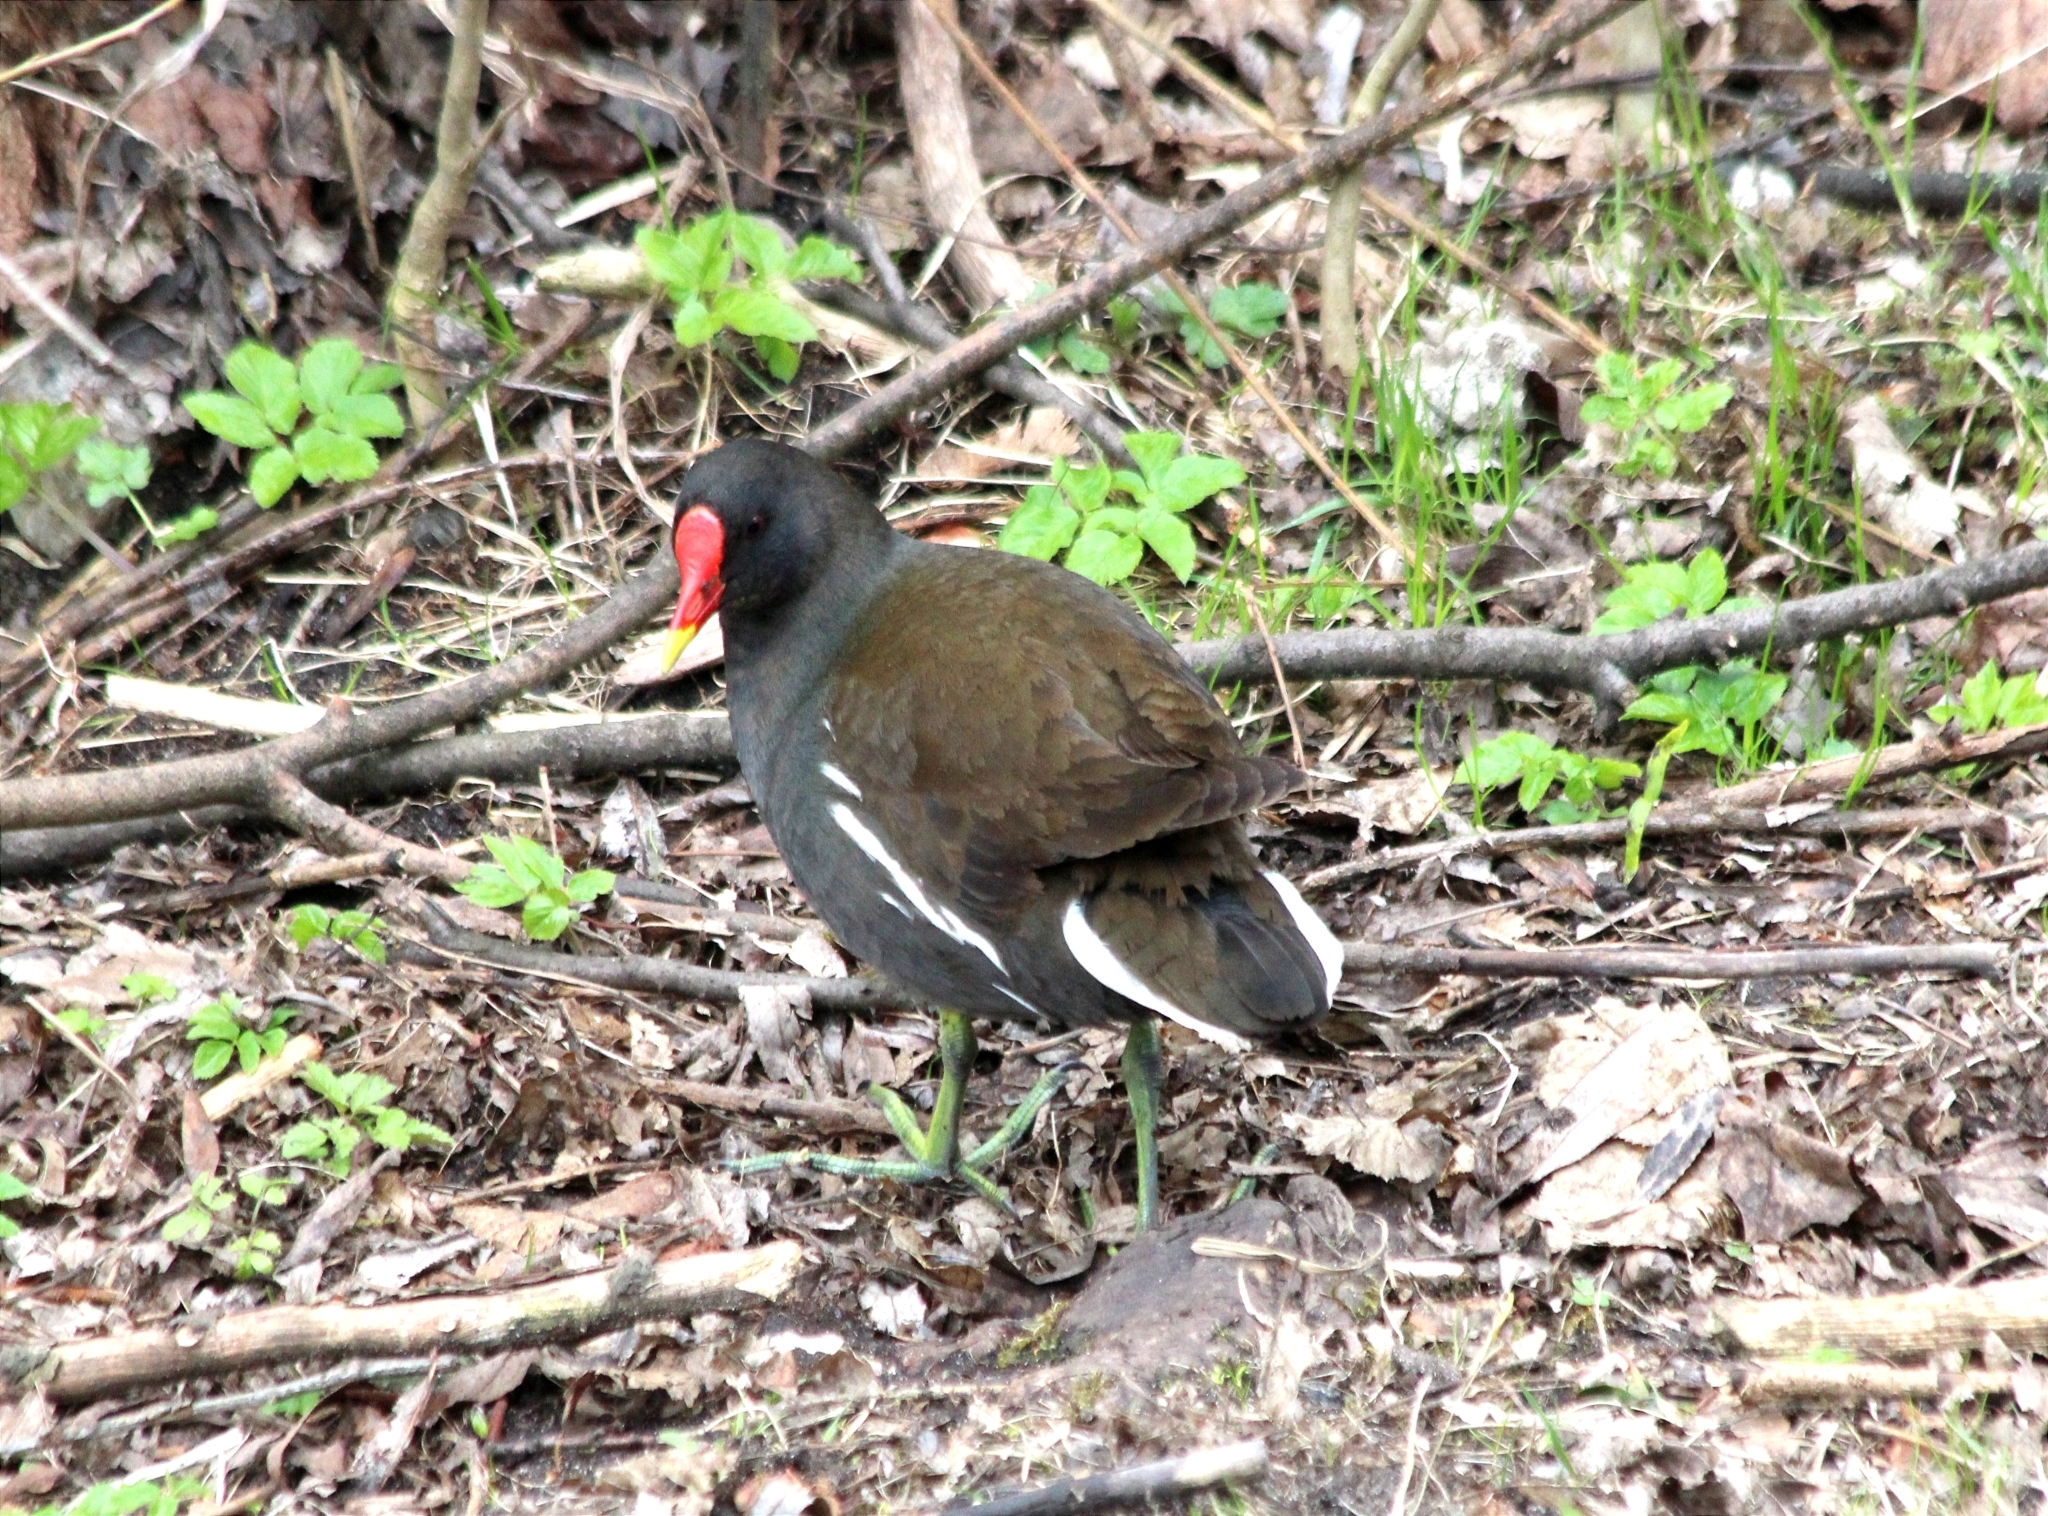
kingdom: Animalia
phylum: Chordata
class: Aves
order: Gruiformes
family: Rallidae
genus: Gallinula
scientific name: Gallinula chloropus
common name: Common moorhen
